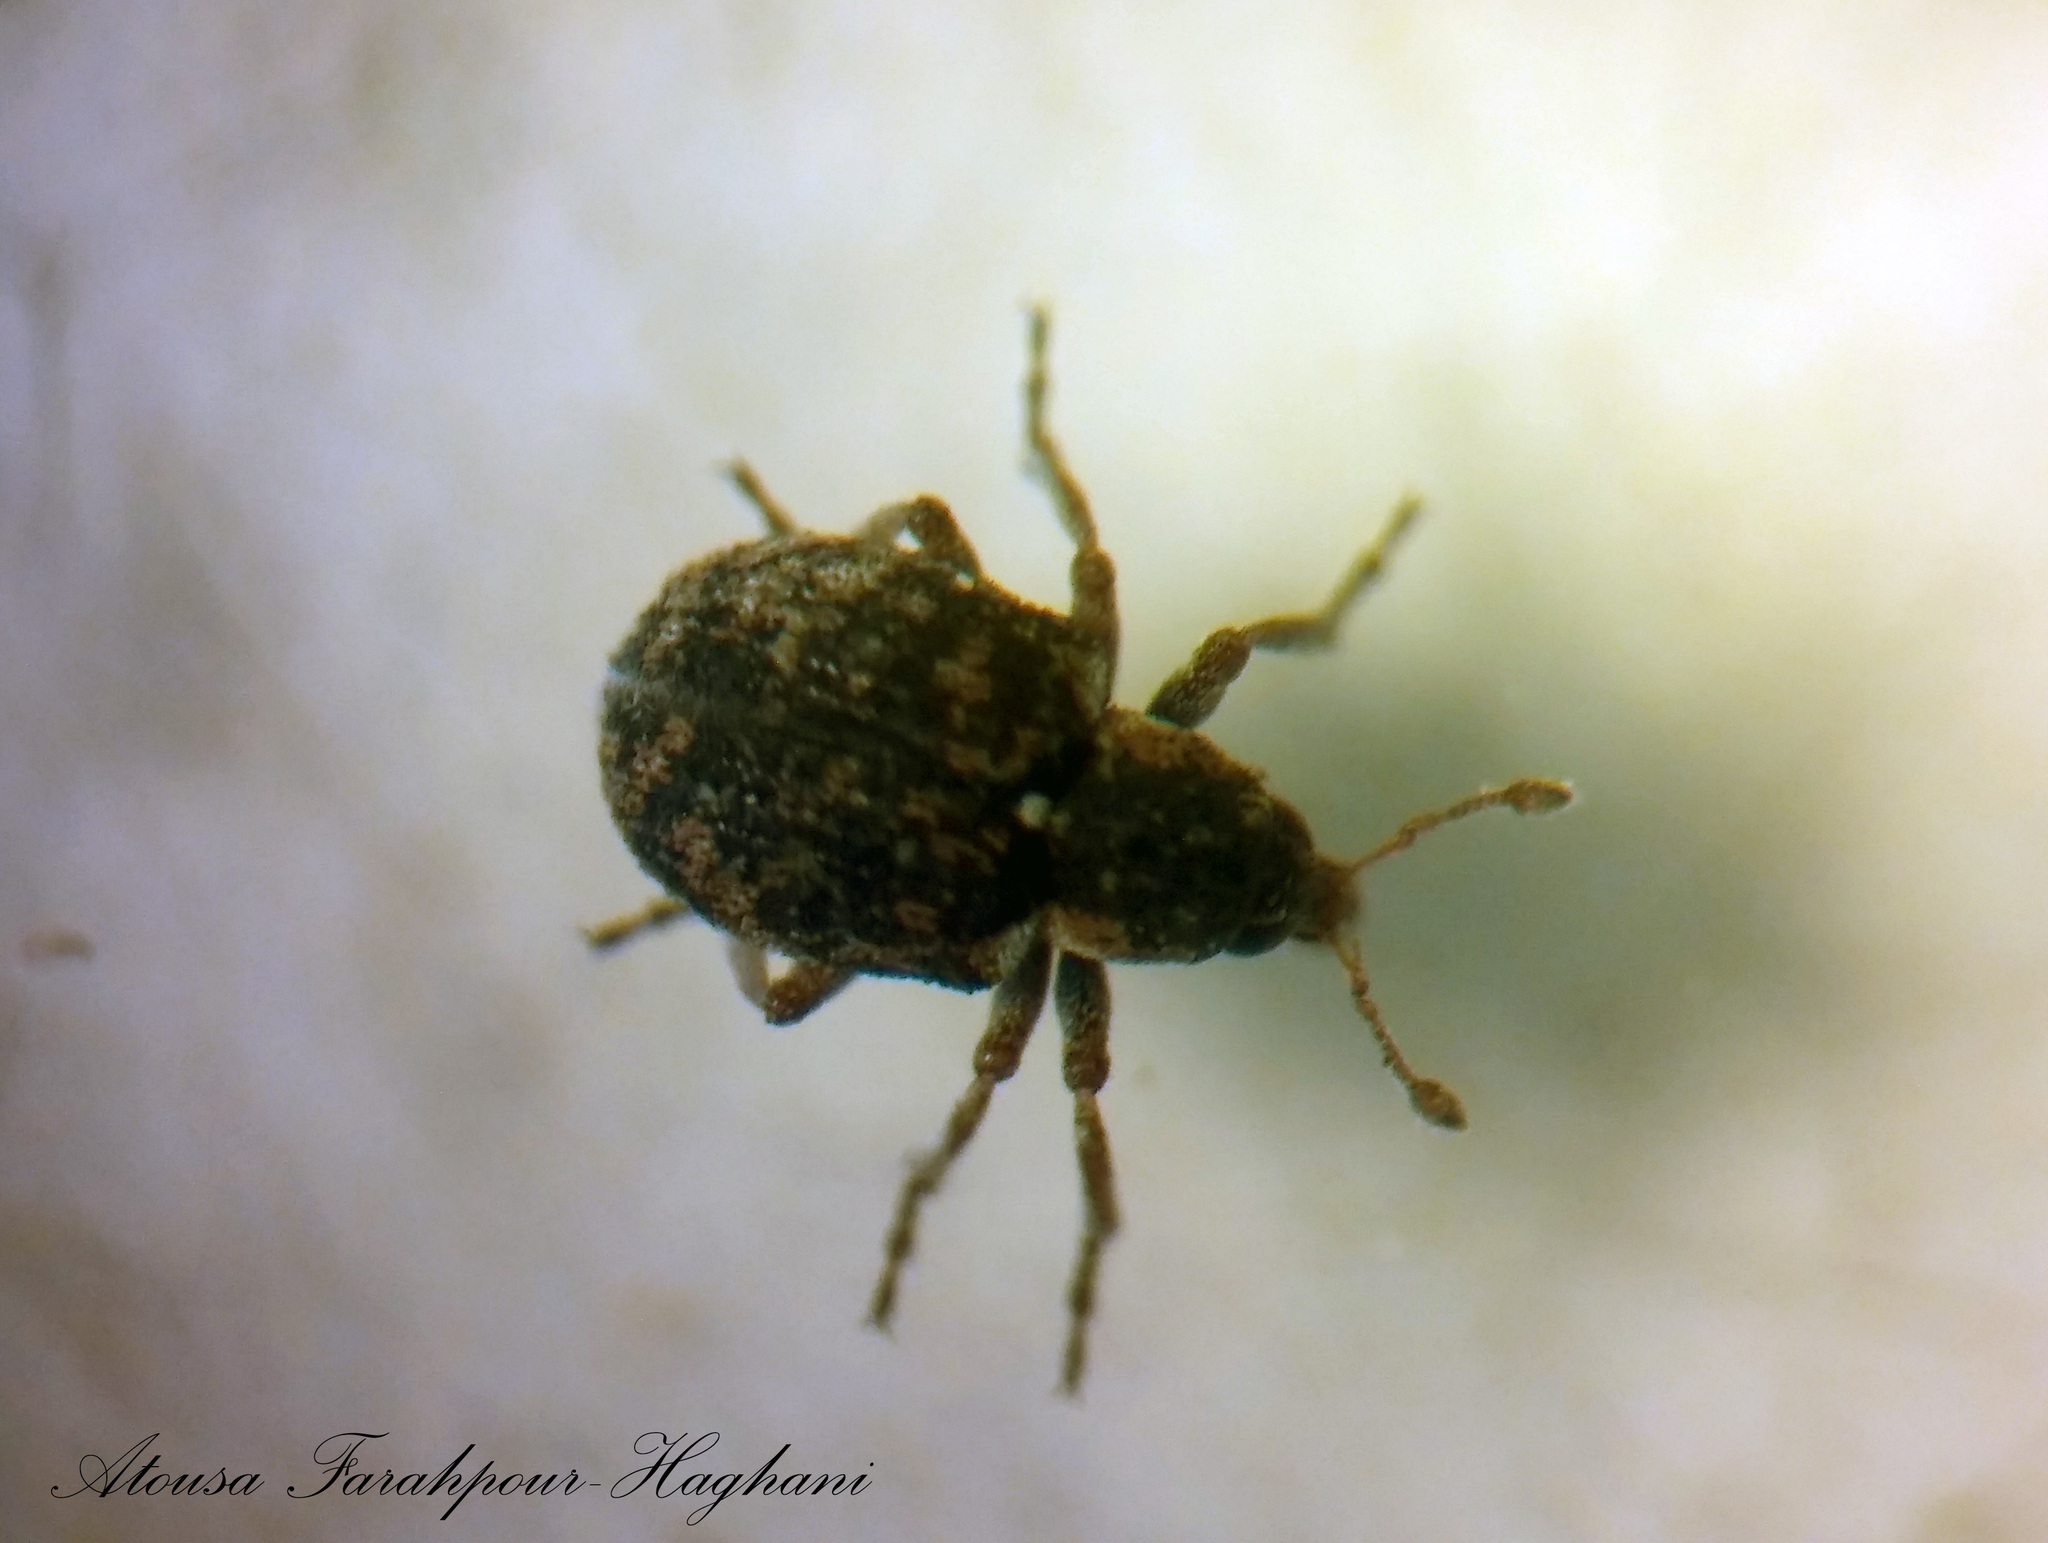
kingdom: Animalia
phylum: Arthropoda
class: Insecta
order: Coleoptera
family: Brachyceridae
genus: Stenopelmus
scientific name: Stenopelmus rufinasus
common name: Azolla weevil
